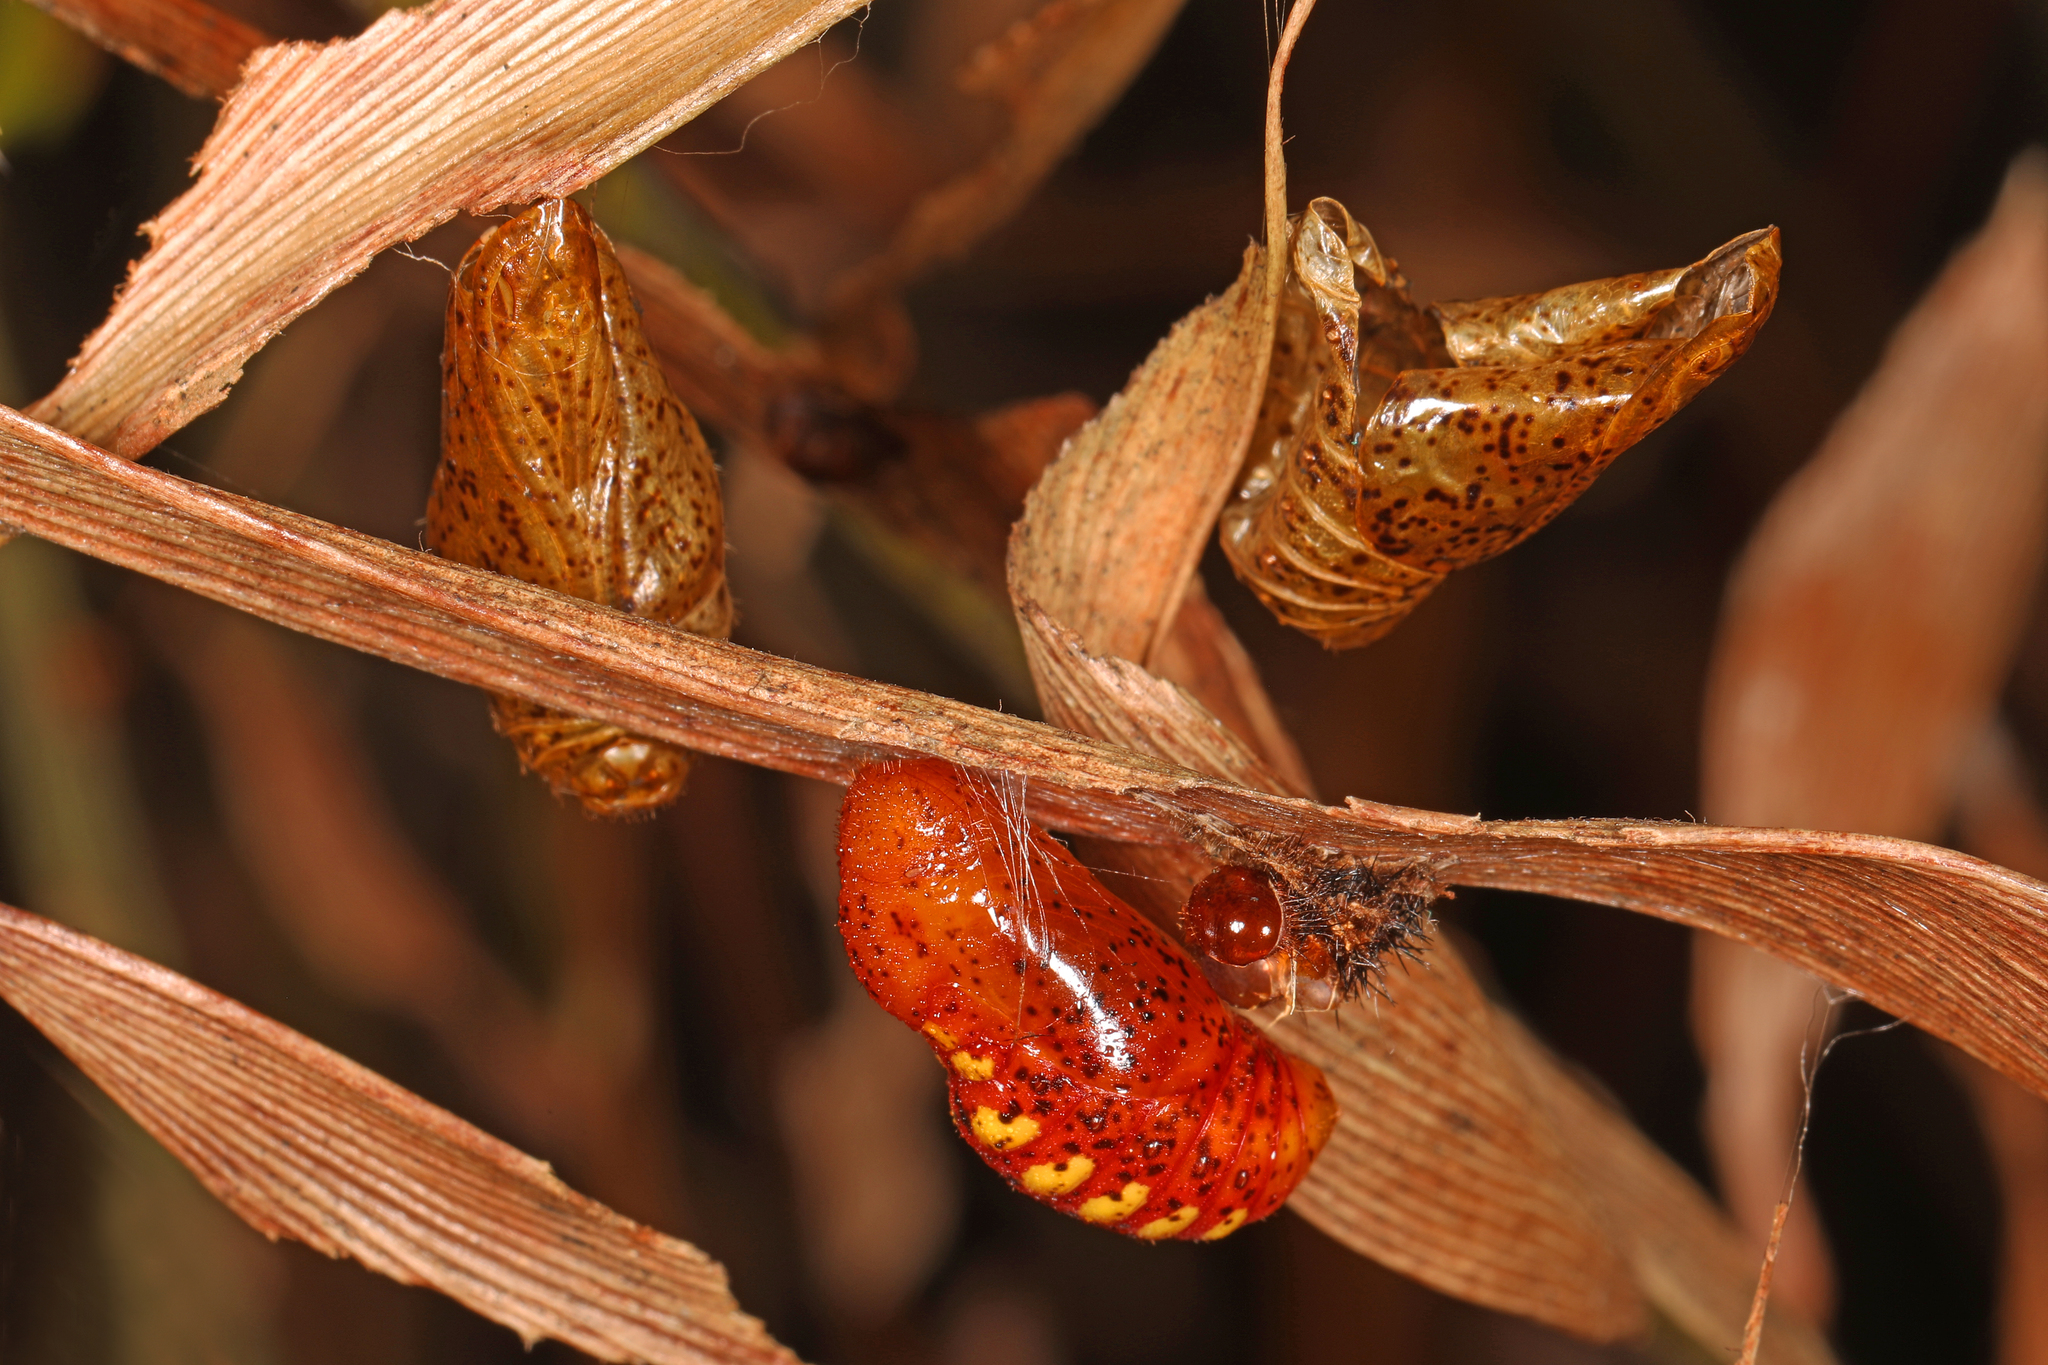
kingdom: Animalia
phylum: Arthropoda
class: Insecta
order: Lepidoptera
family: Lycaenidae
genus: Eumaeus
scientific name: Eumaeus atala
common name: Atala
